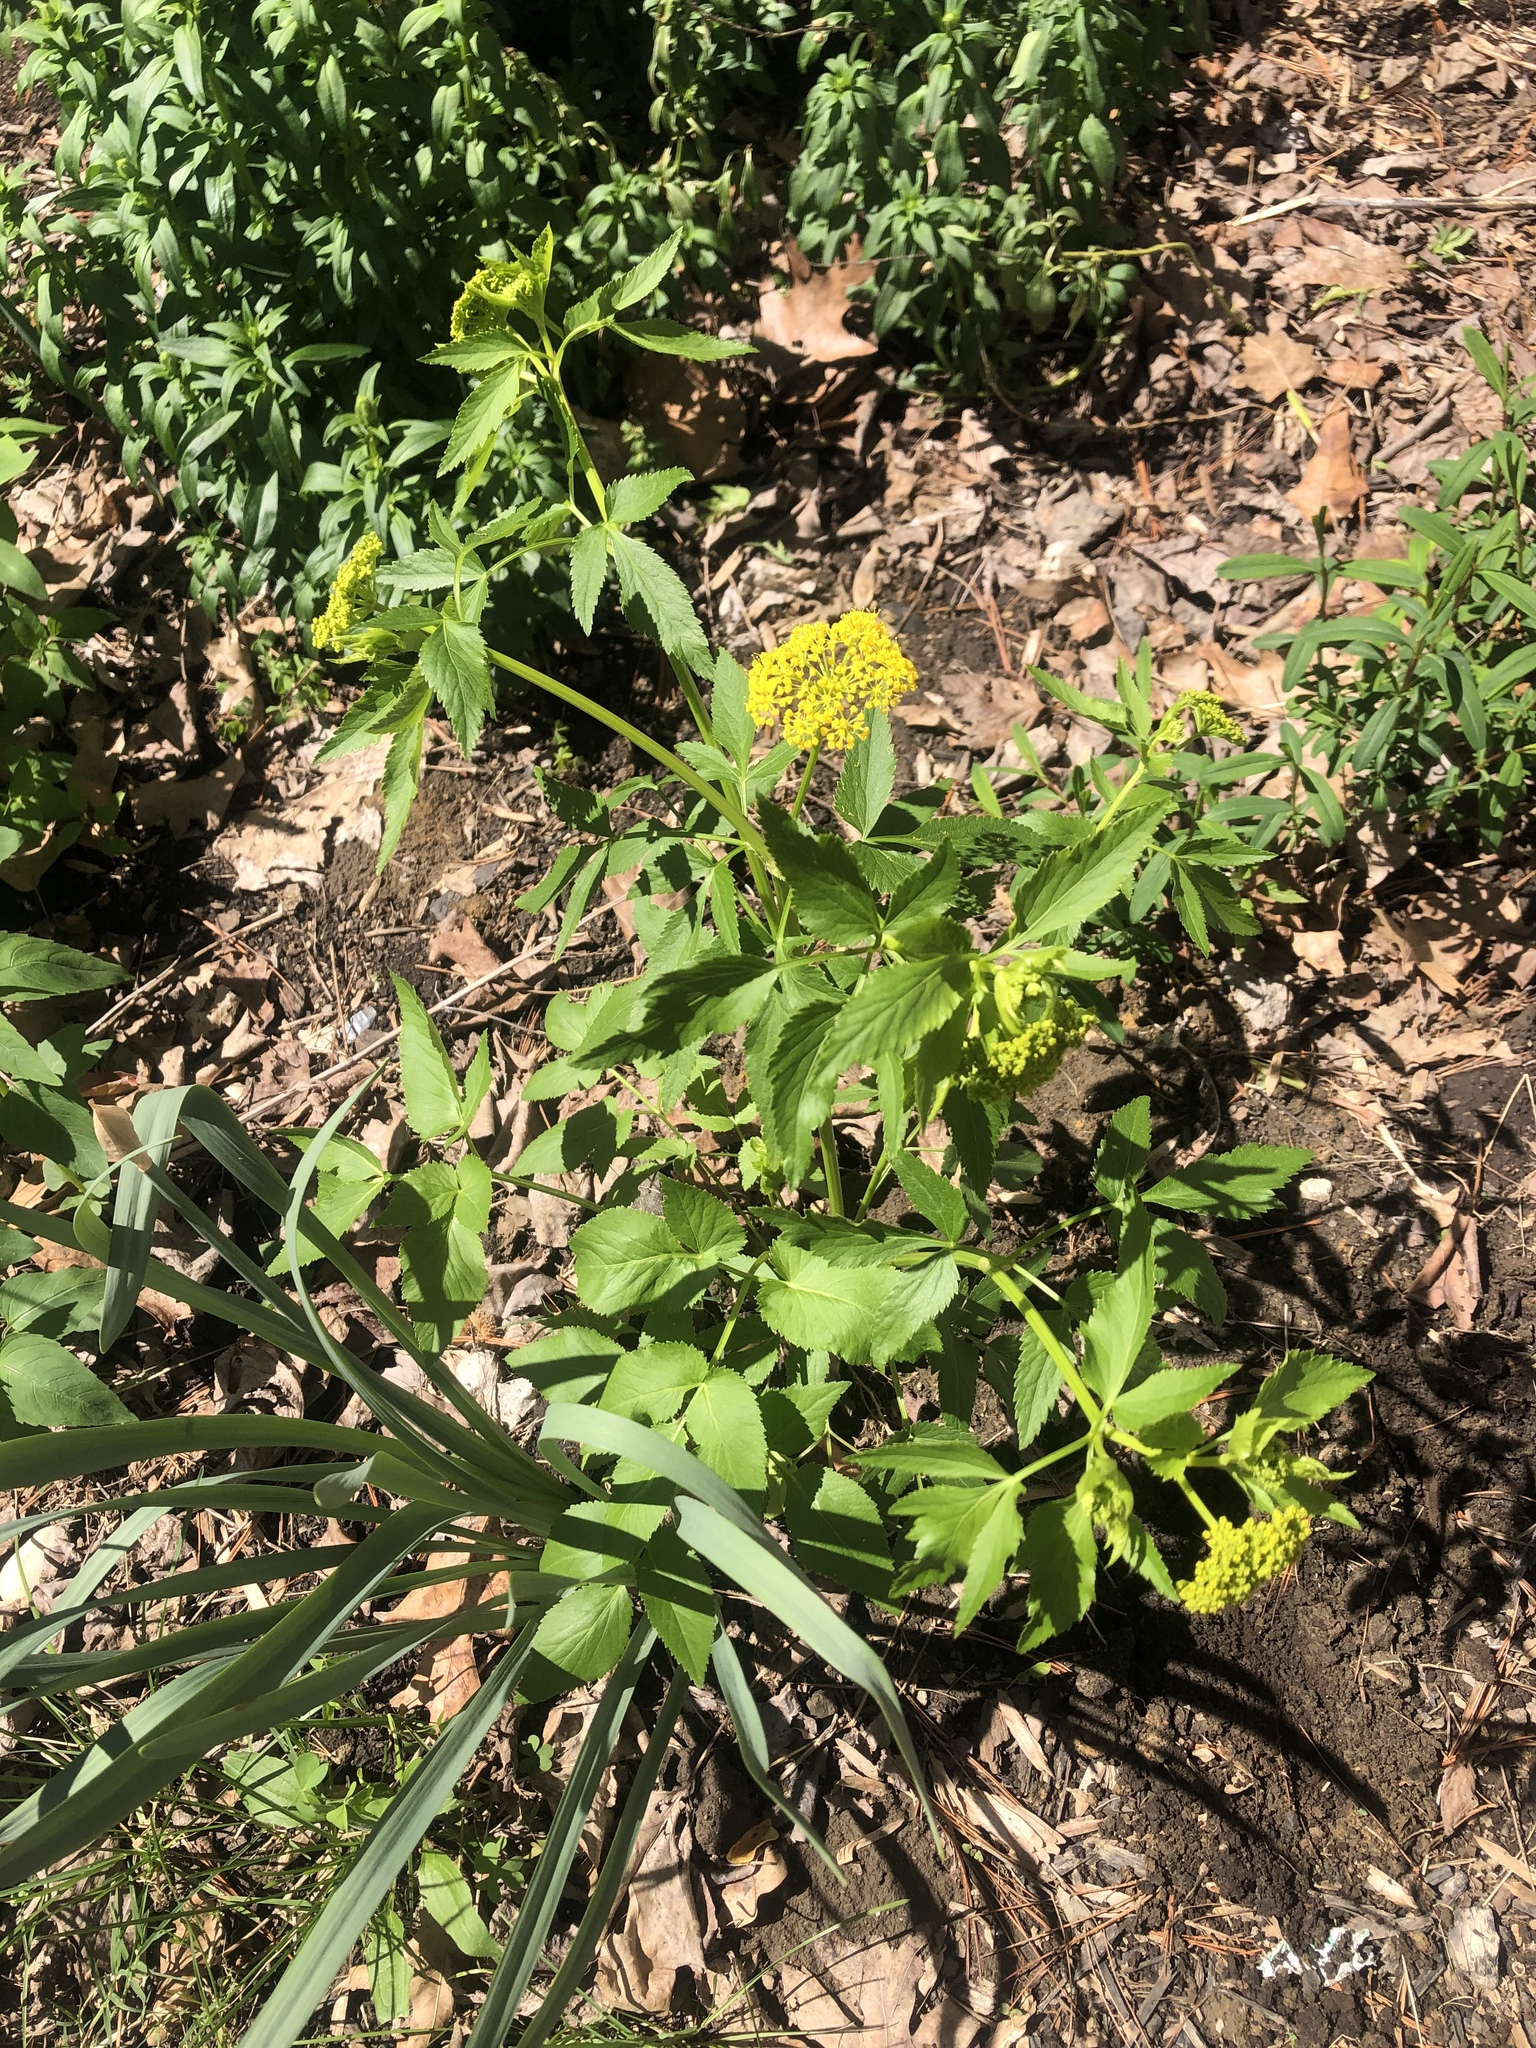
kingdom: Plantae
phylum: Tracheophyta
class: Magnoliopsida
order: Apiales
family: Apiaceae
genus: Zizia
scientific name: Zizia aurea
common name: Golden alexanders
